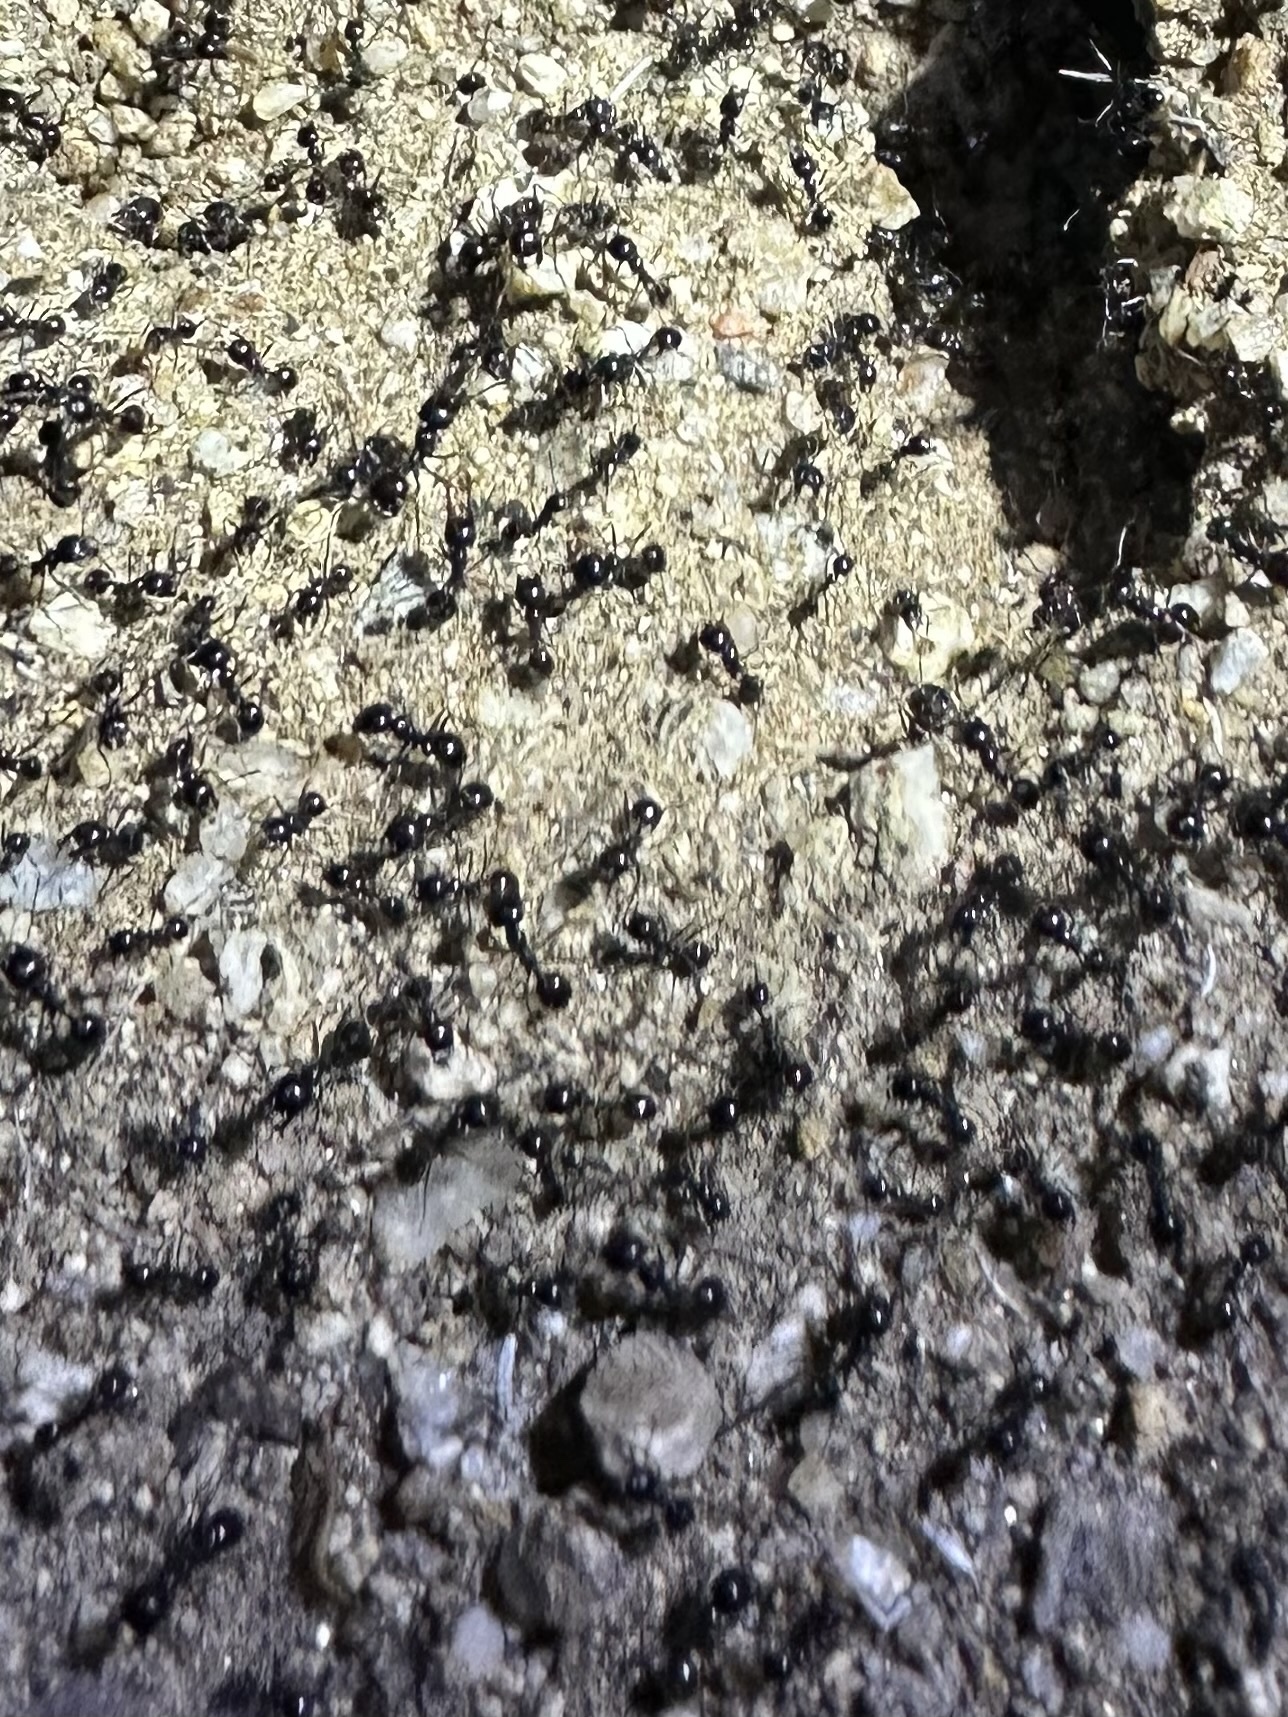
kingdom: Animalia
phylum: Arthropoda
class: Insecta
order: Hymenoptera
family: Formicidae
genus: Messor
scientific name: Messor pergandei
